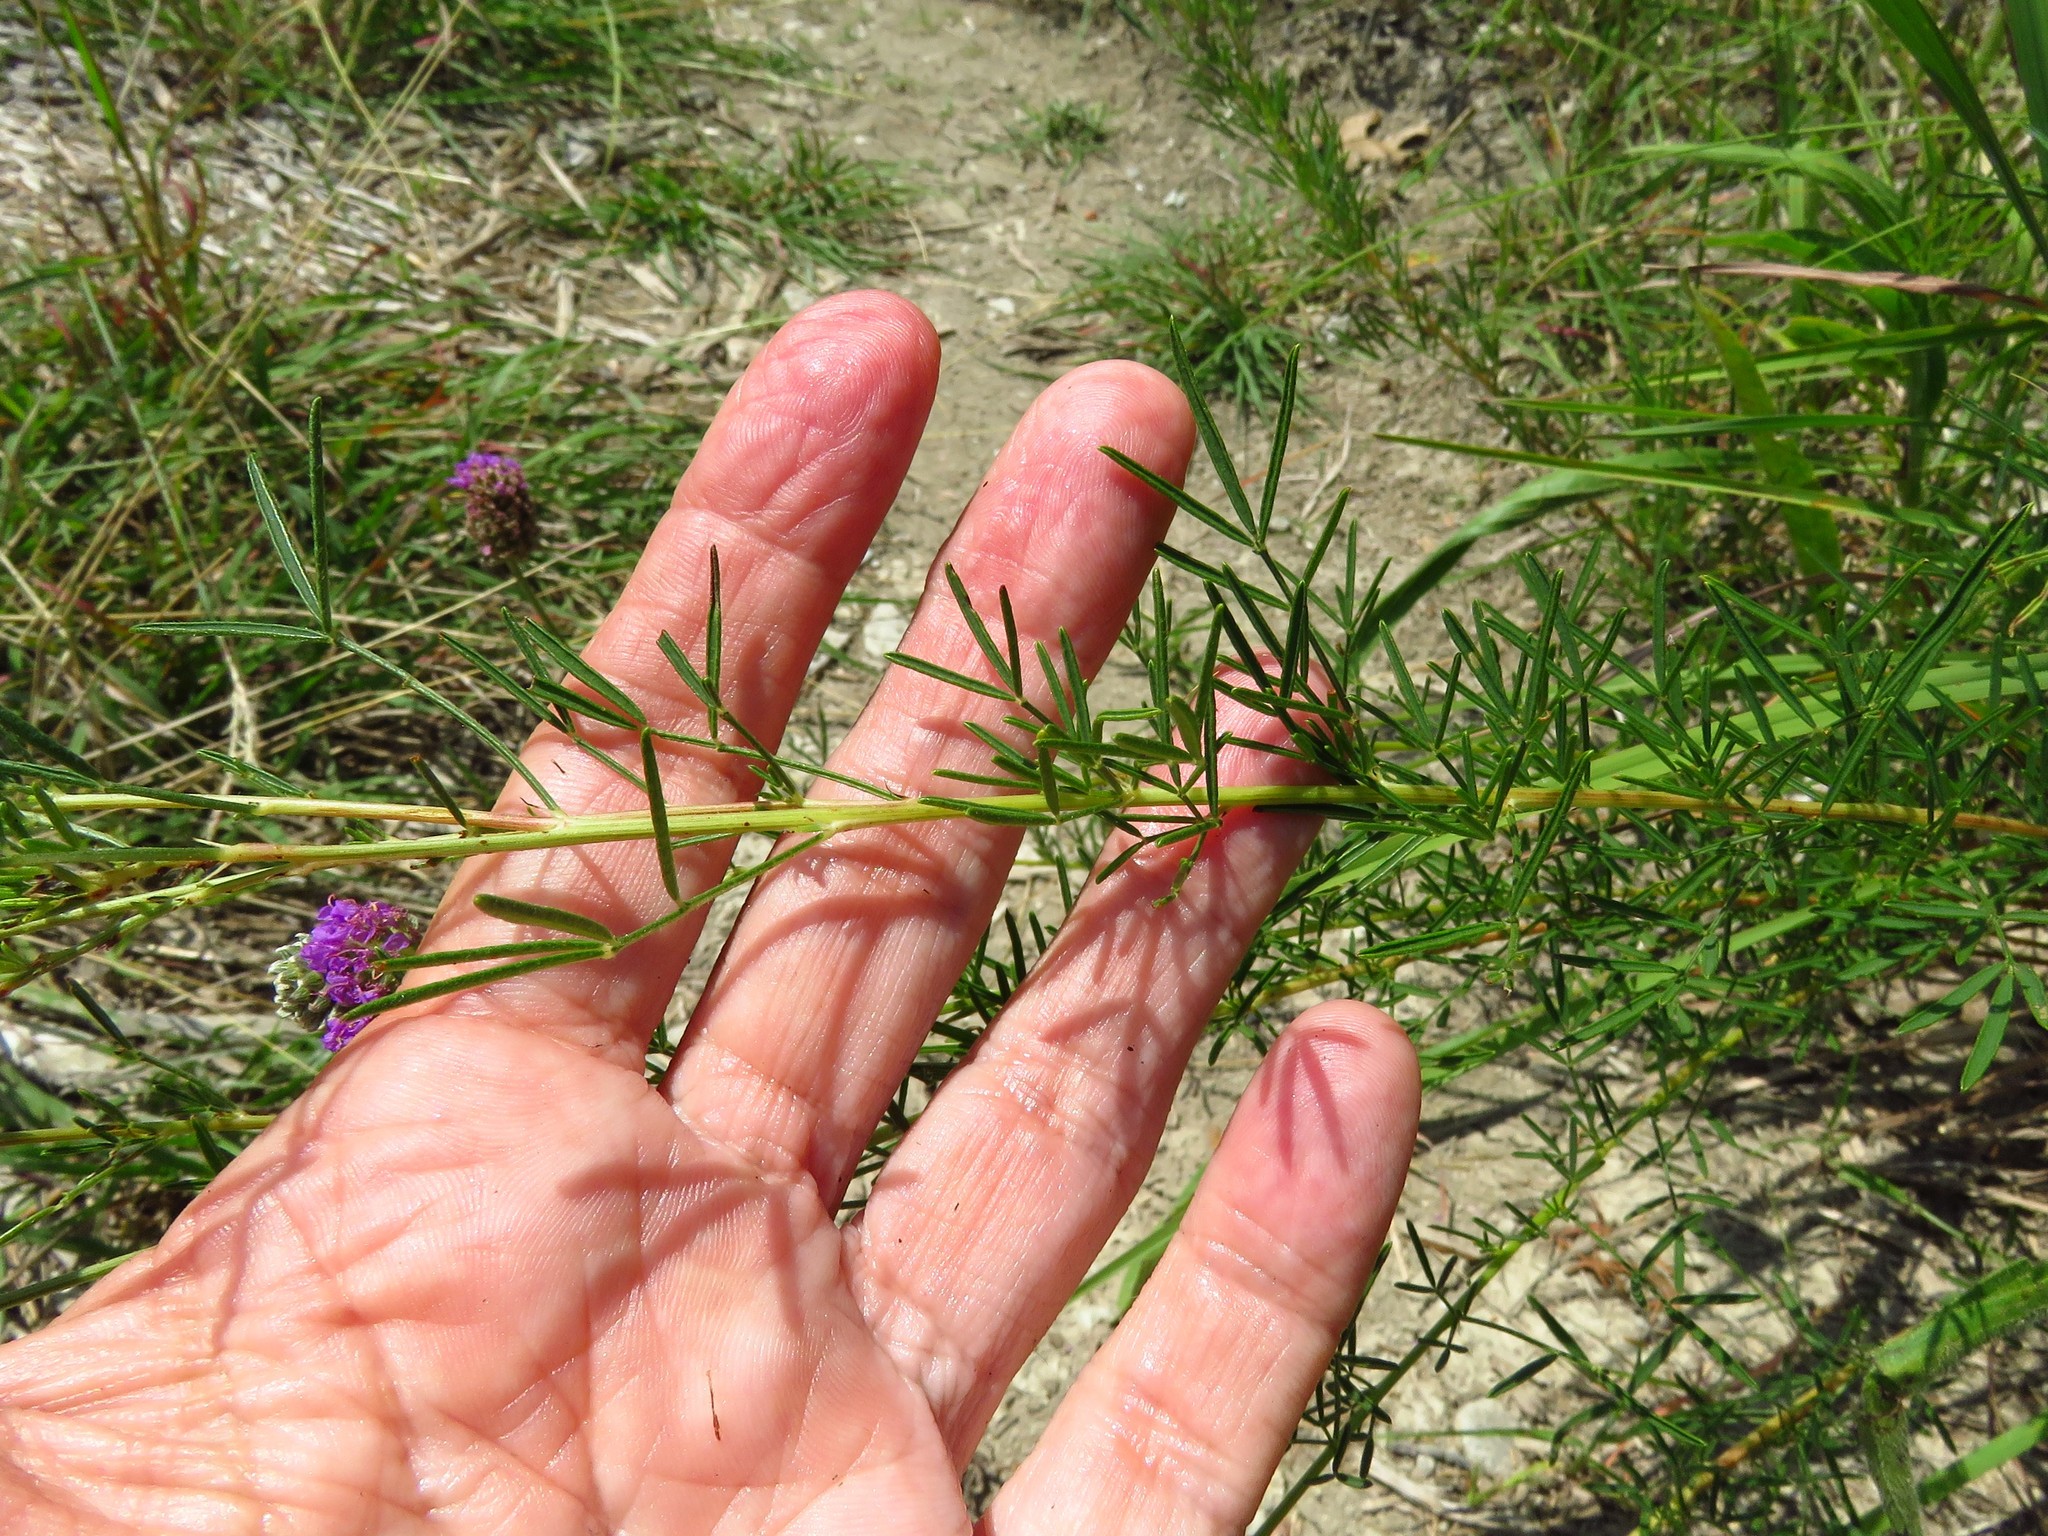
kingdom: Plantae
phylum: Tracheophyta
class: Magnoliopsida
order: Fabales
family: Fabaceae
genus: Dalea
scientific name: Dalea purpurea
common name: Purple prairie-clover
